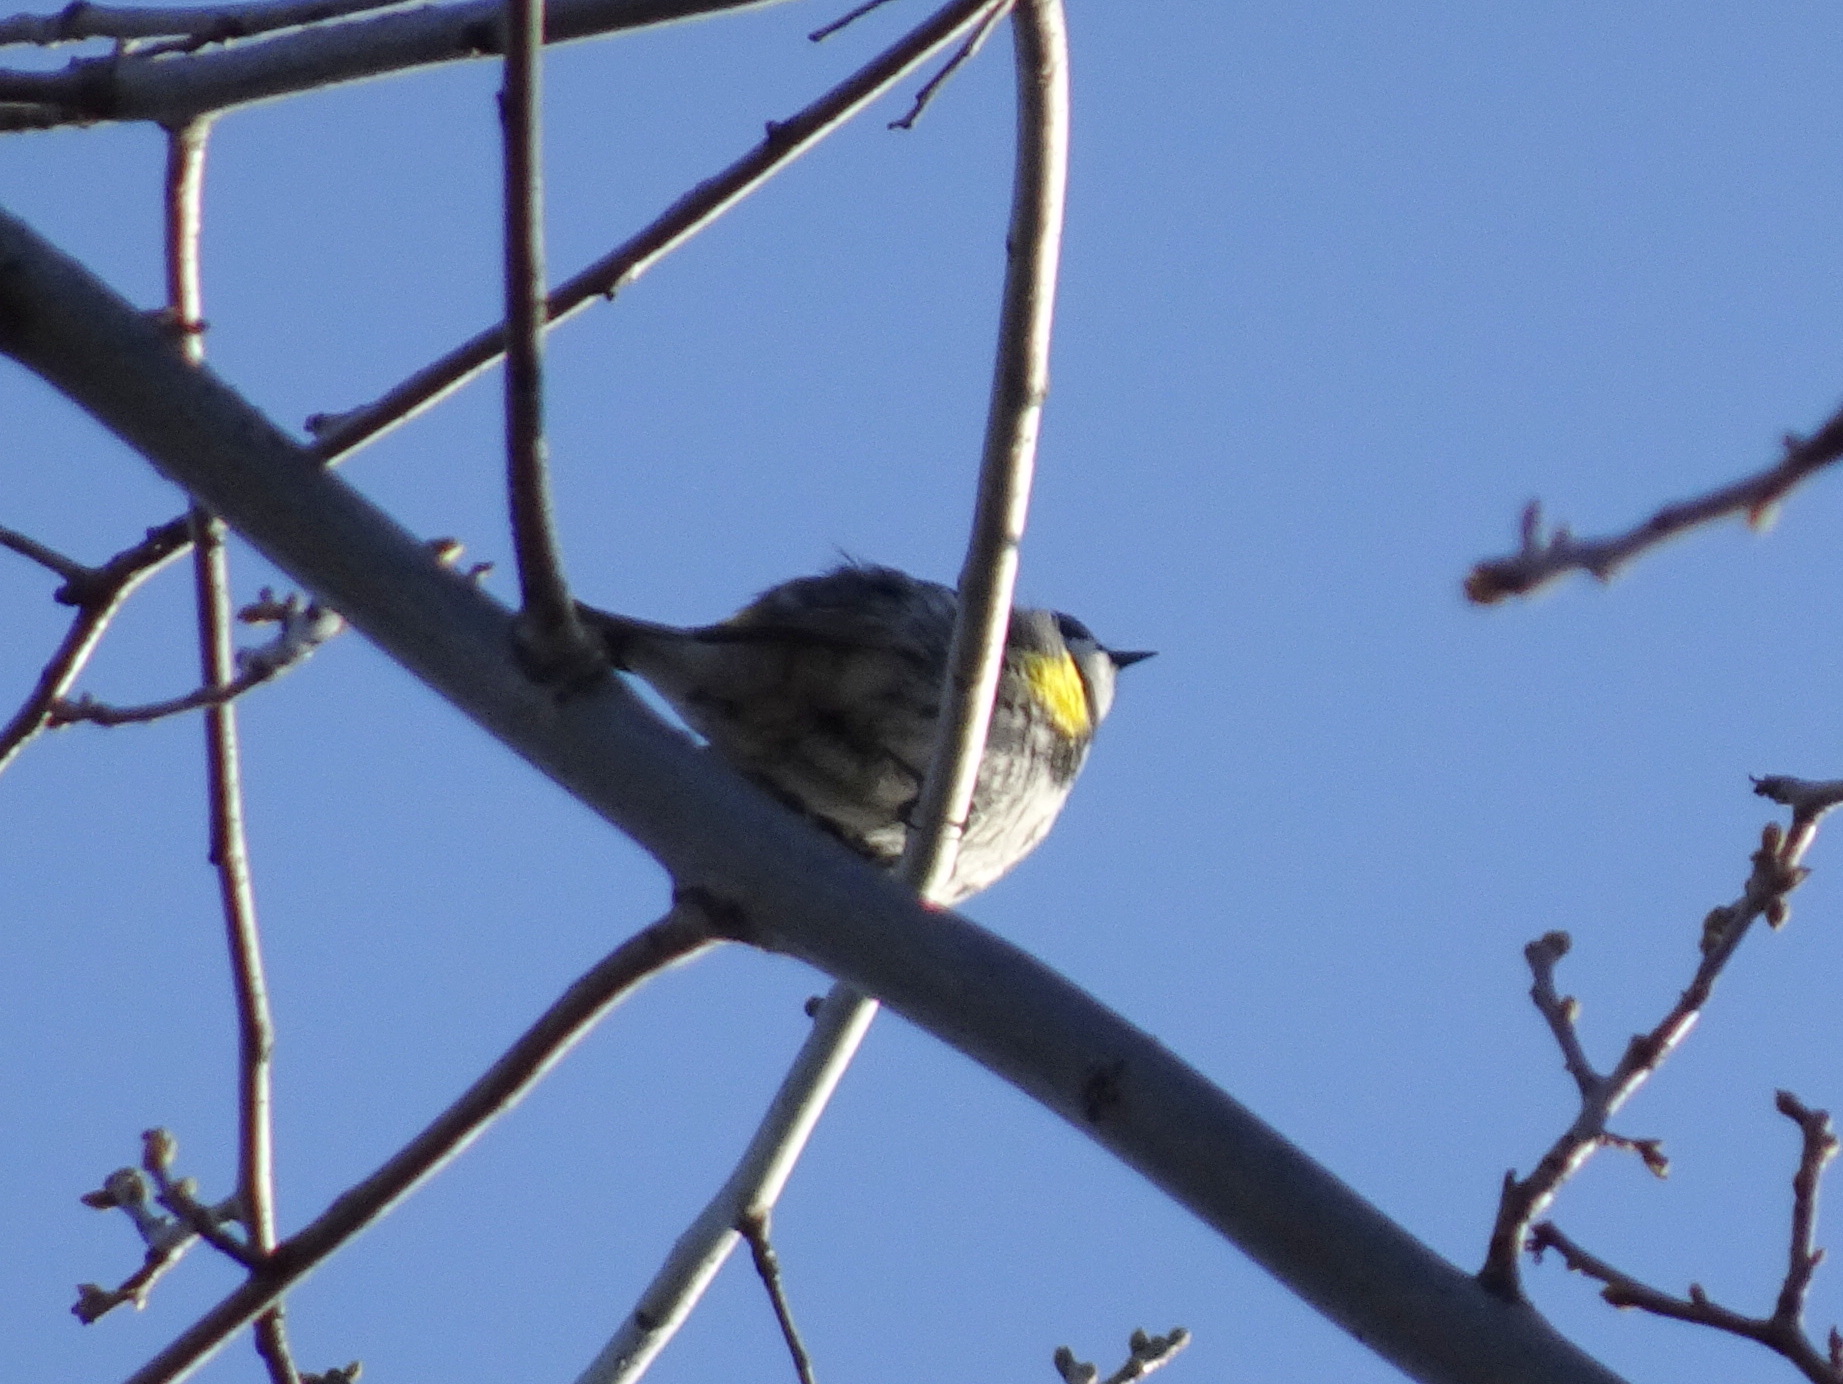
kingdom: Animalia
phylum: Chordata
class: Aves
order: Passeriformes
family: Parulidae
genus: Setophaga
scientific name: Setophaga coronata
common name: Myrtle warbler
